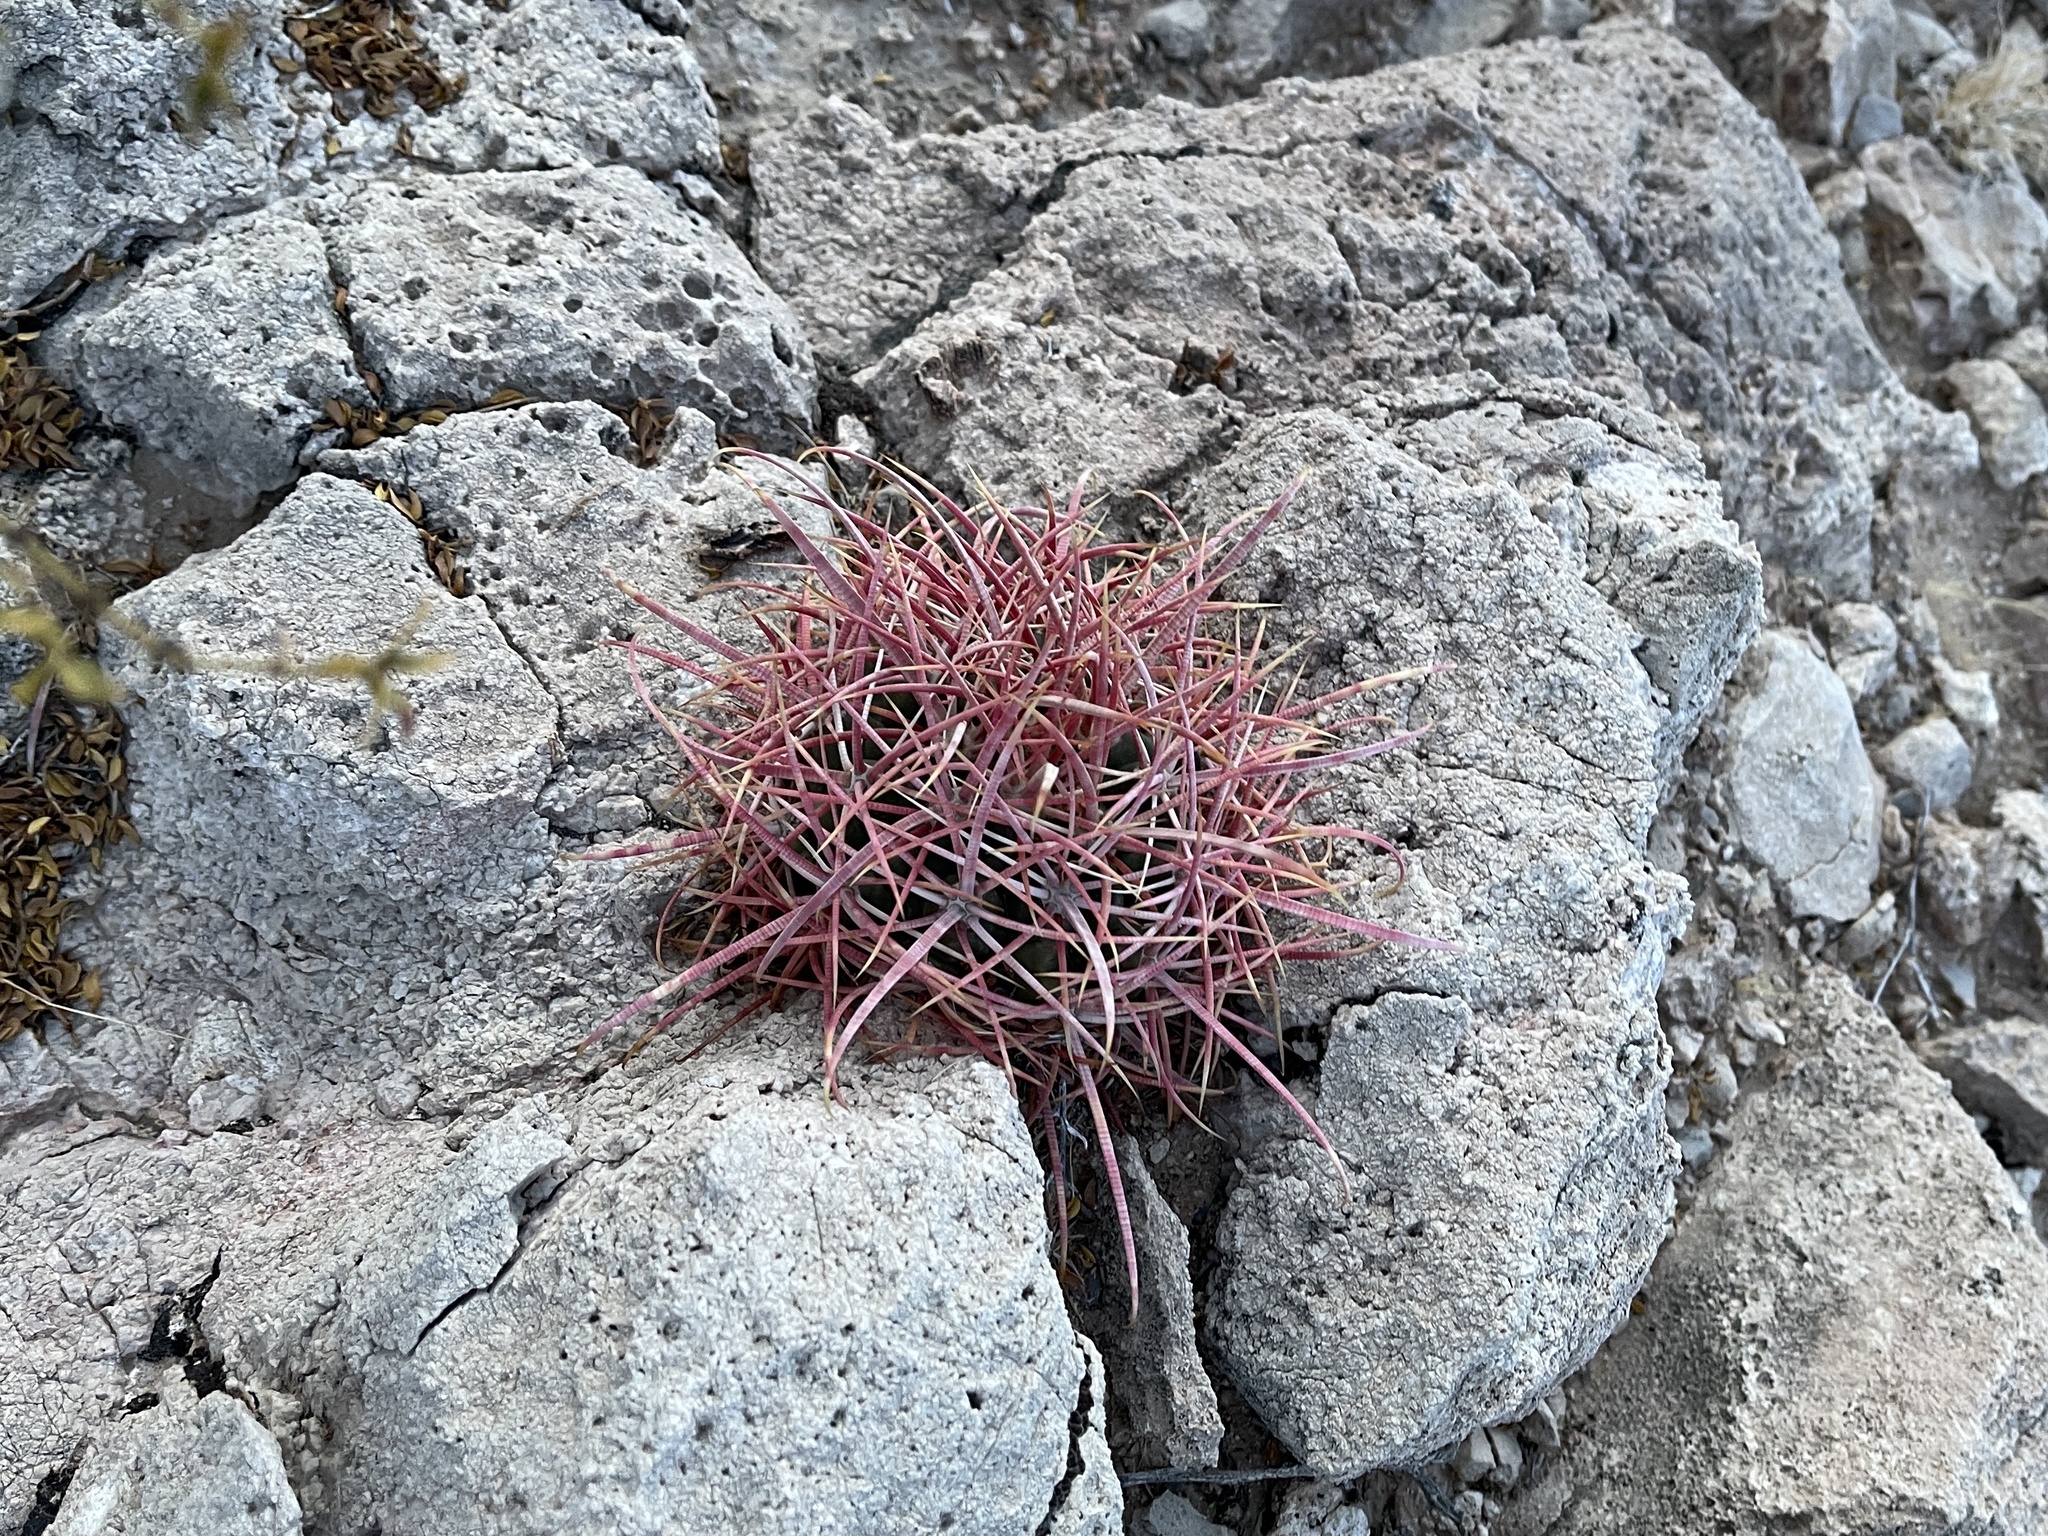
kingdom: Plantae
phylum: Tracheophyta
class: Magnoliopsida
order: Caryophyllales
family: Cactaceae
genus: Ferocactus
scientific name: Ferocactus cylindraceus
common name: California barrel cactus
